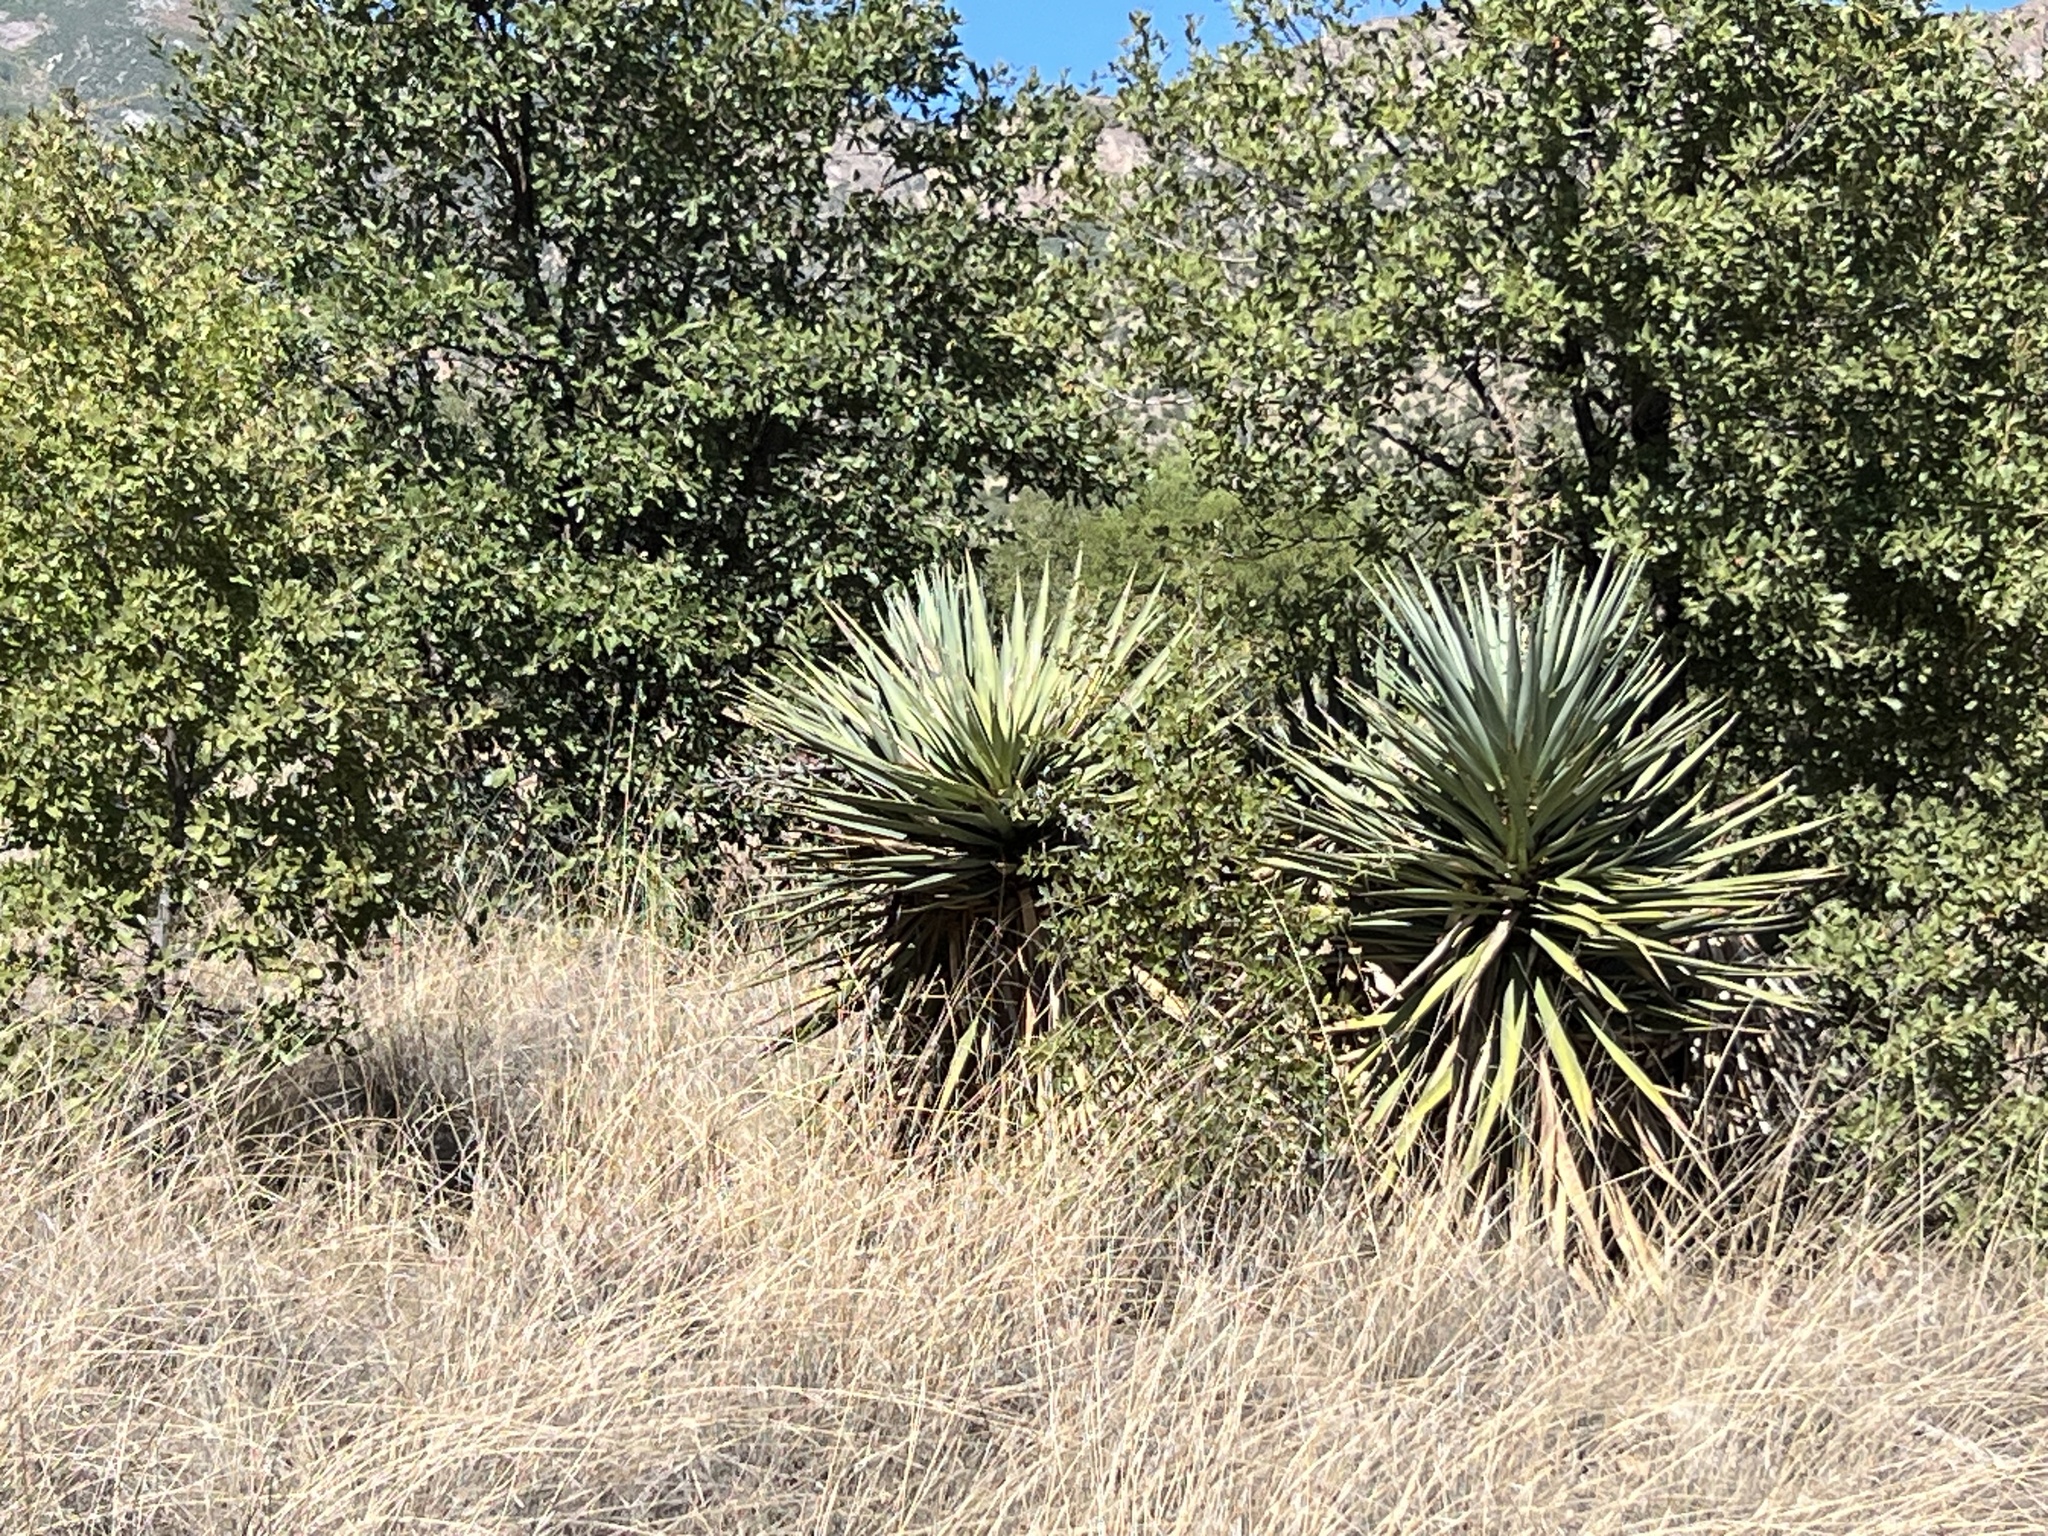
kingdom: Plantae
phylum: Tracheophyta
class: Liliopsida
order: Asparagales
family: Asparagaceae
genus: Yucca
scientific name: Yucca schottii
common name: Hoary yucca
